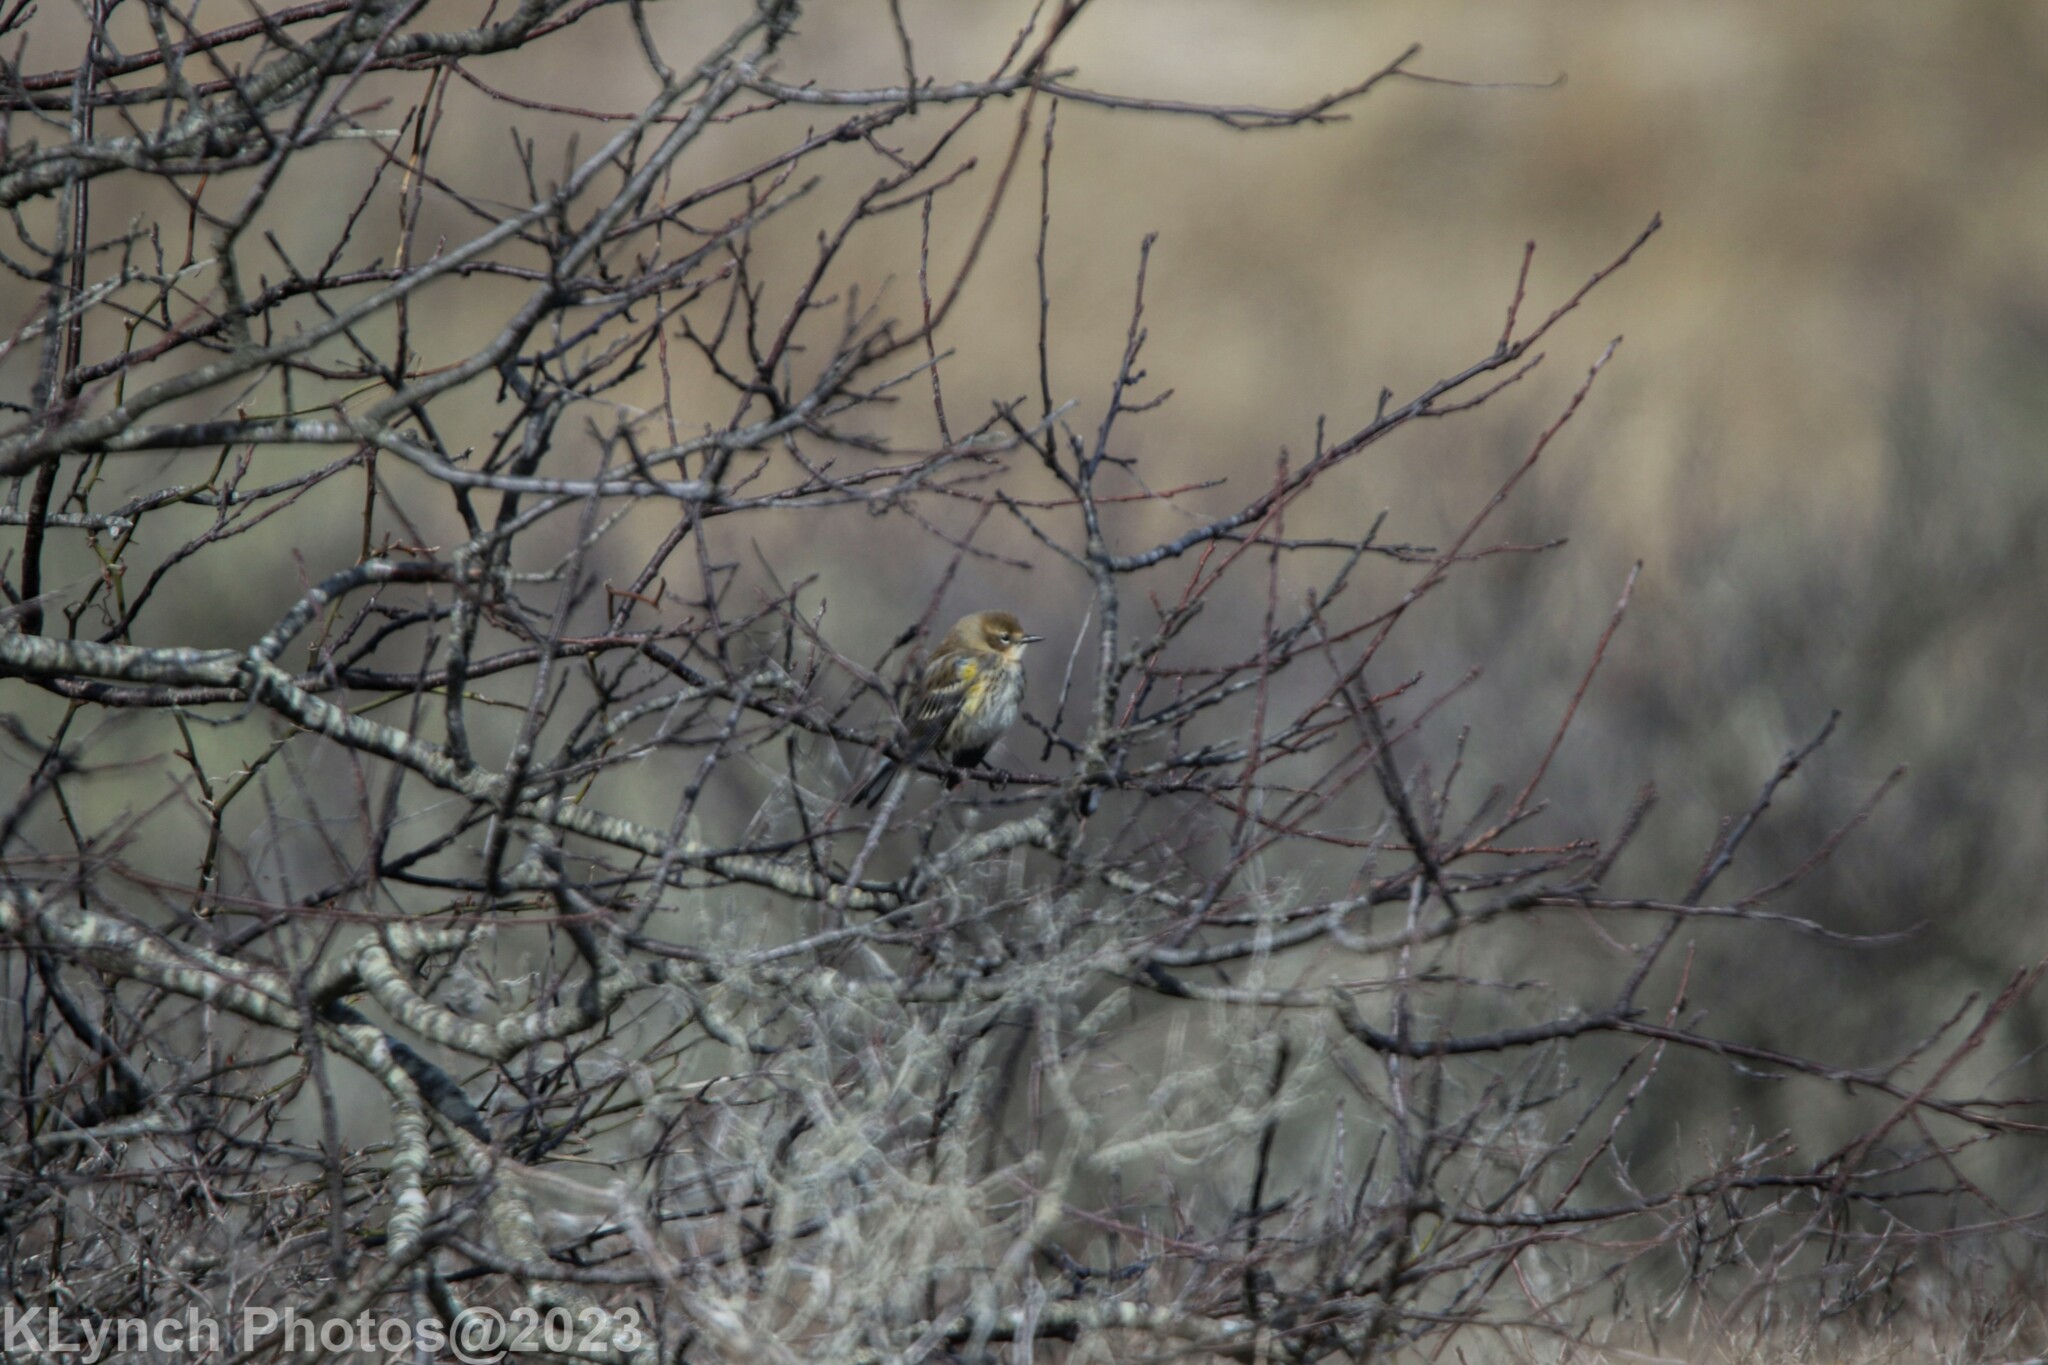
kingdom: Animalia
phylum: Chordata
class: Aves
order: Passeriformes
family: Parulidae
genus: Setophaga
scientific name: Setophaga coronata
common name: Myrtle warbler
